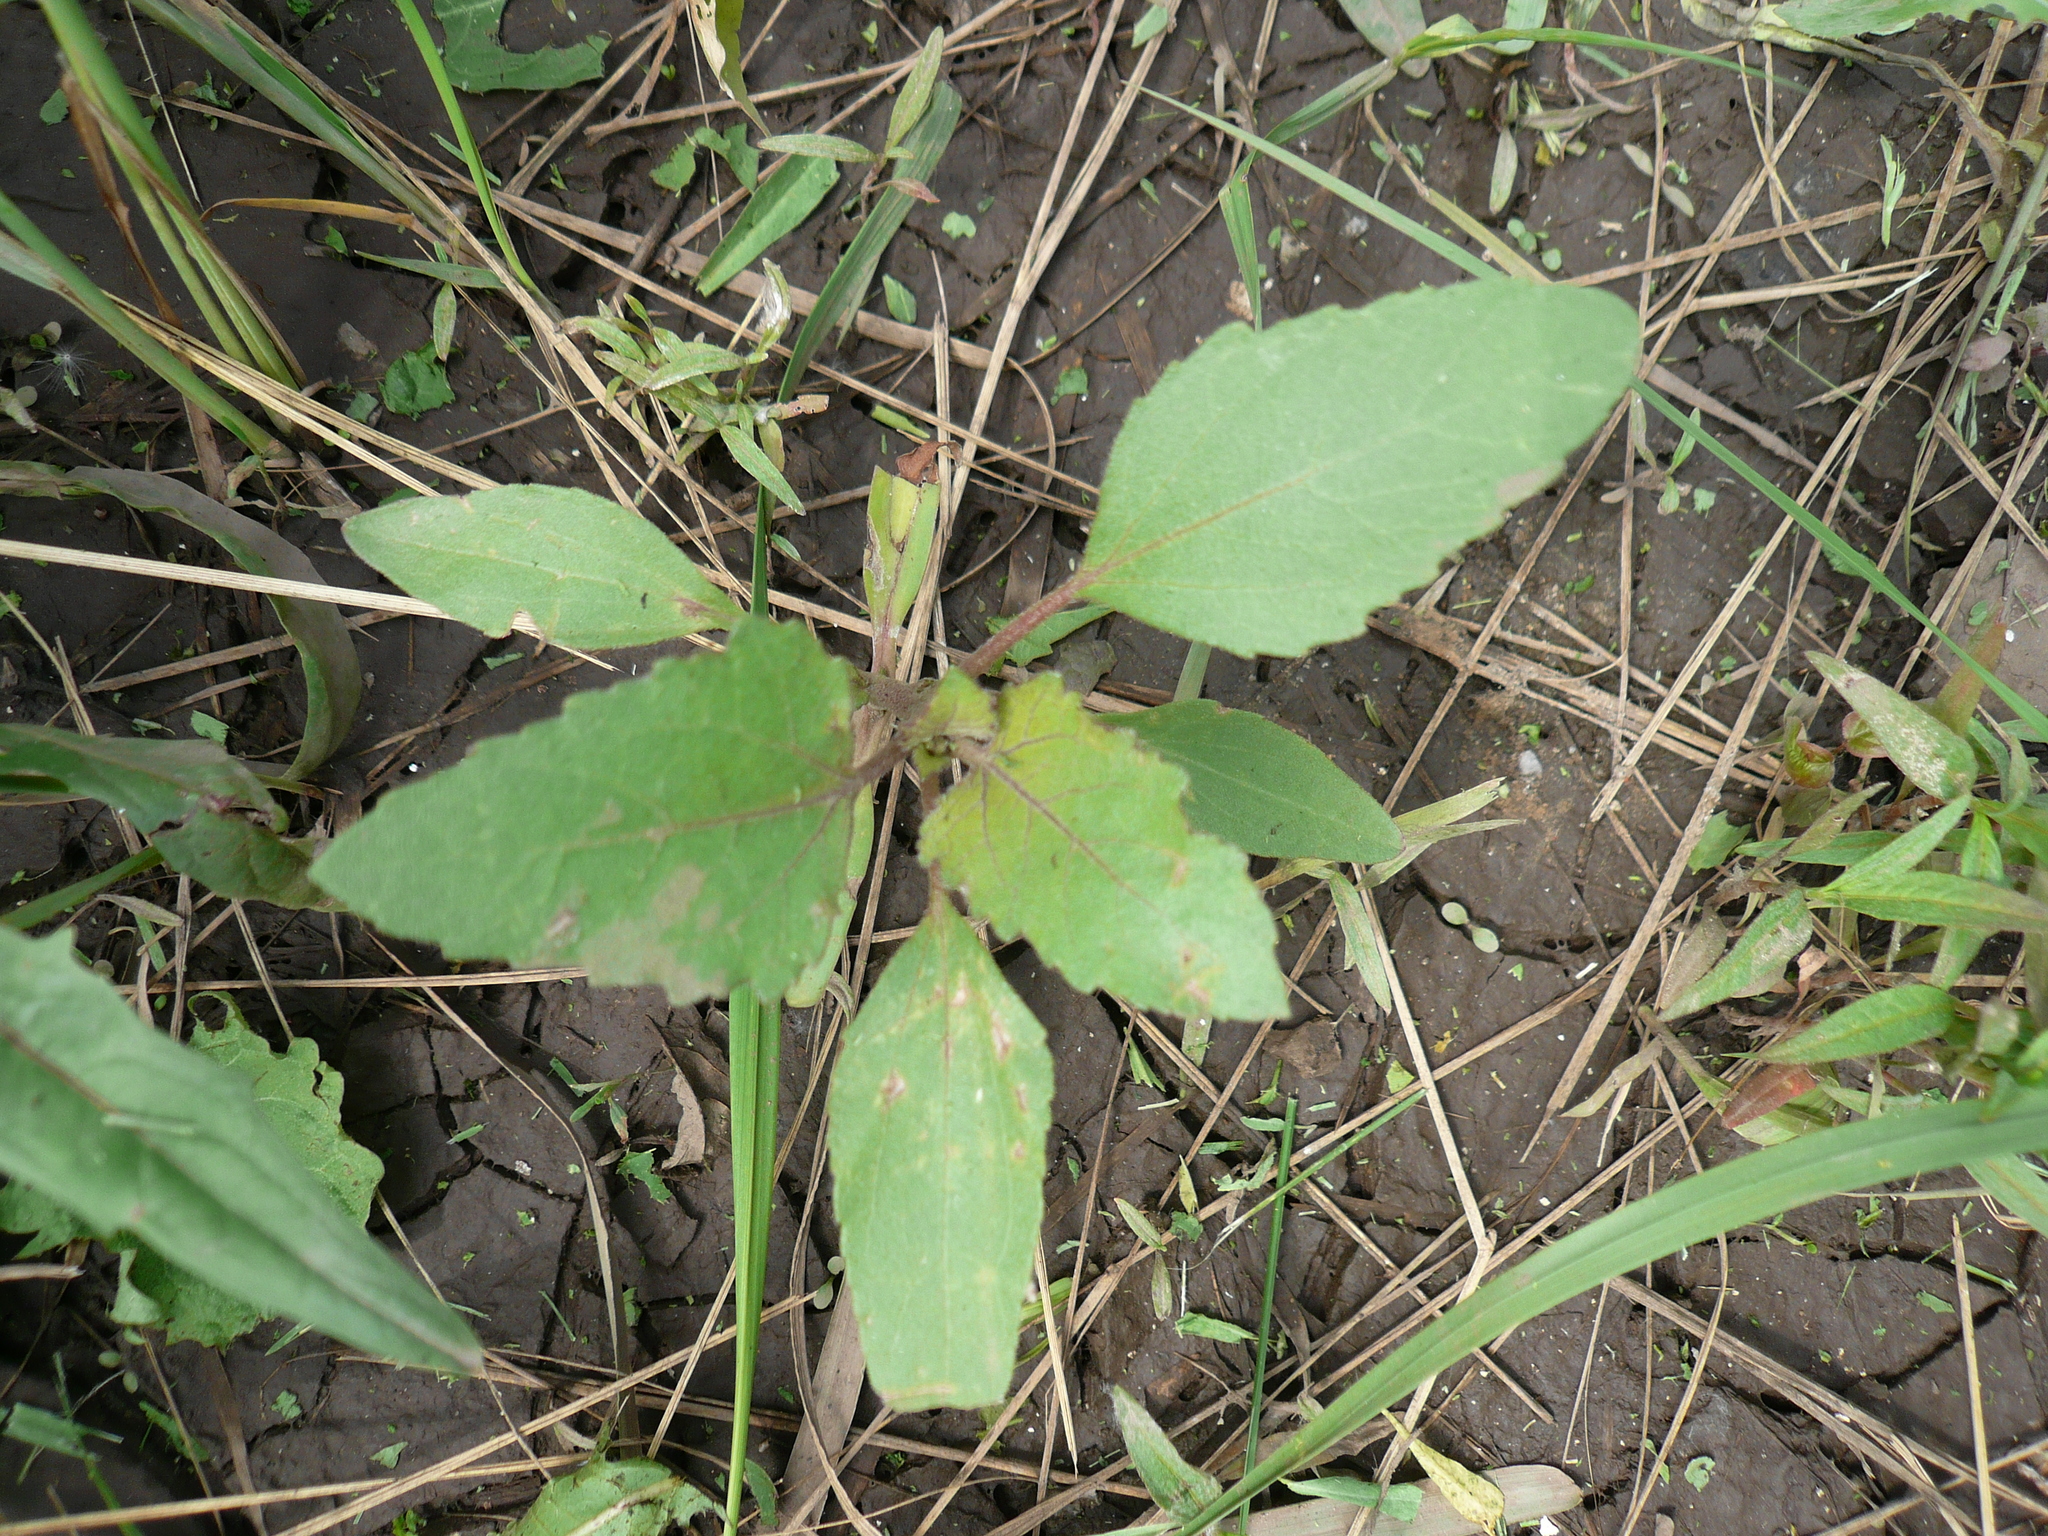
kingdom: Plantae
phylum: Tracheophyta
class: Magnoliopsida
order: Asterales
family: Asteraceae
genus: Xanthium
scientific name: Xanthium orientale
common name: Californian burr
